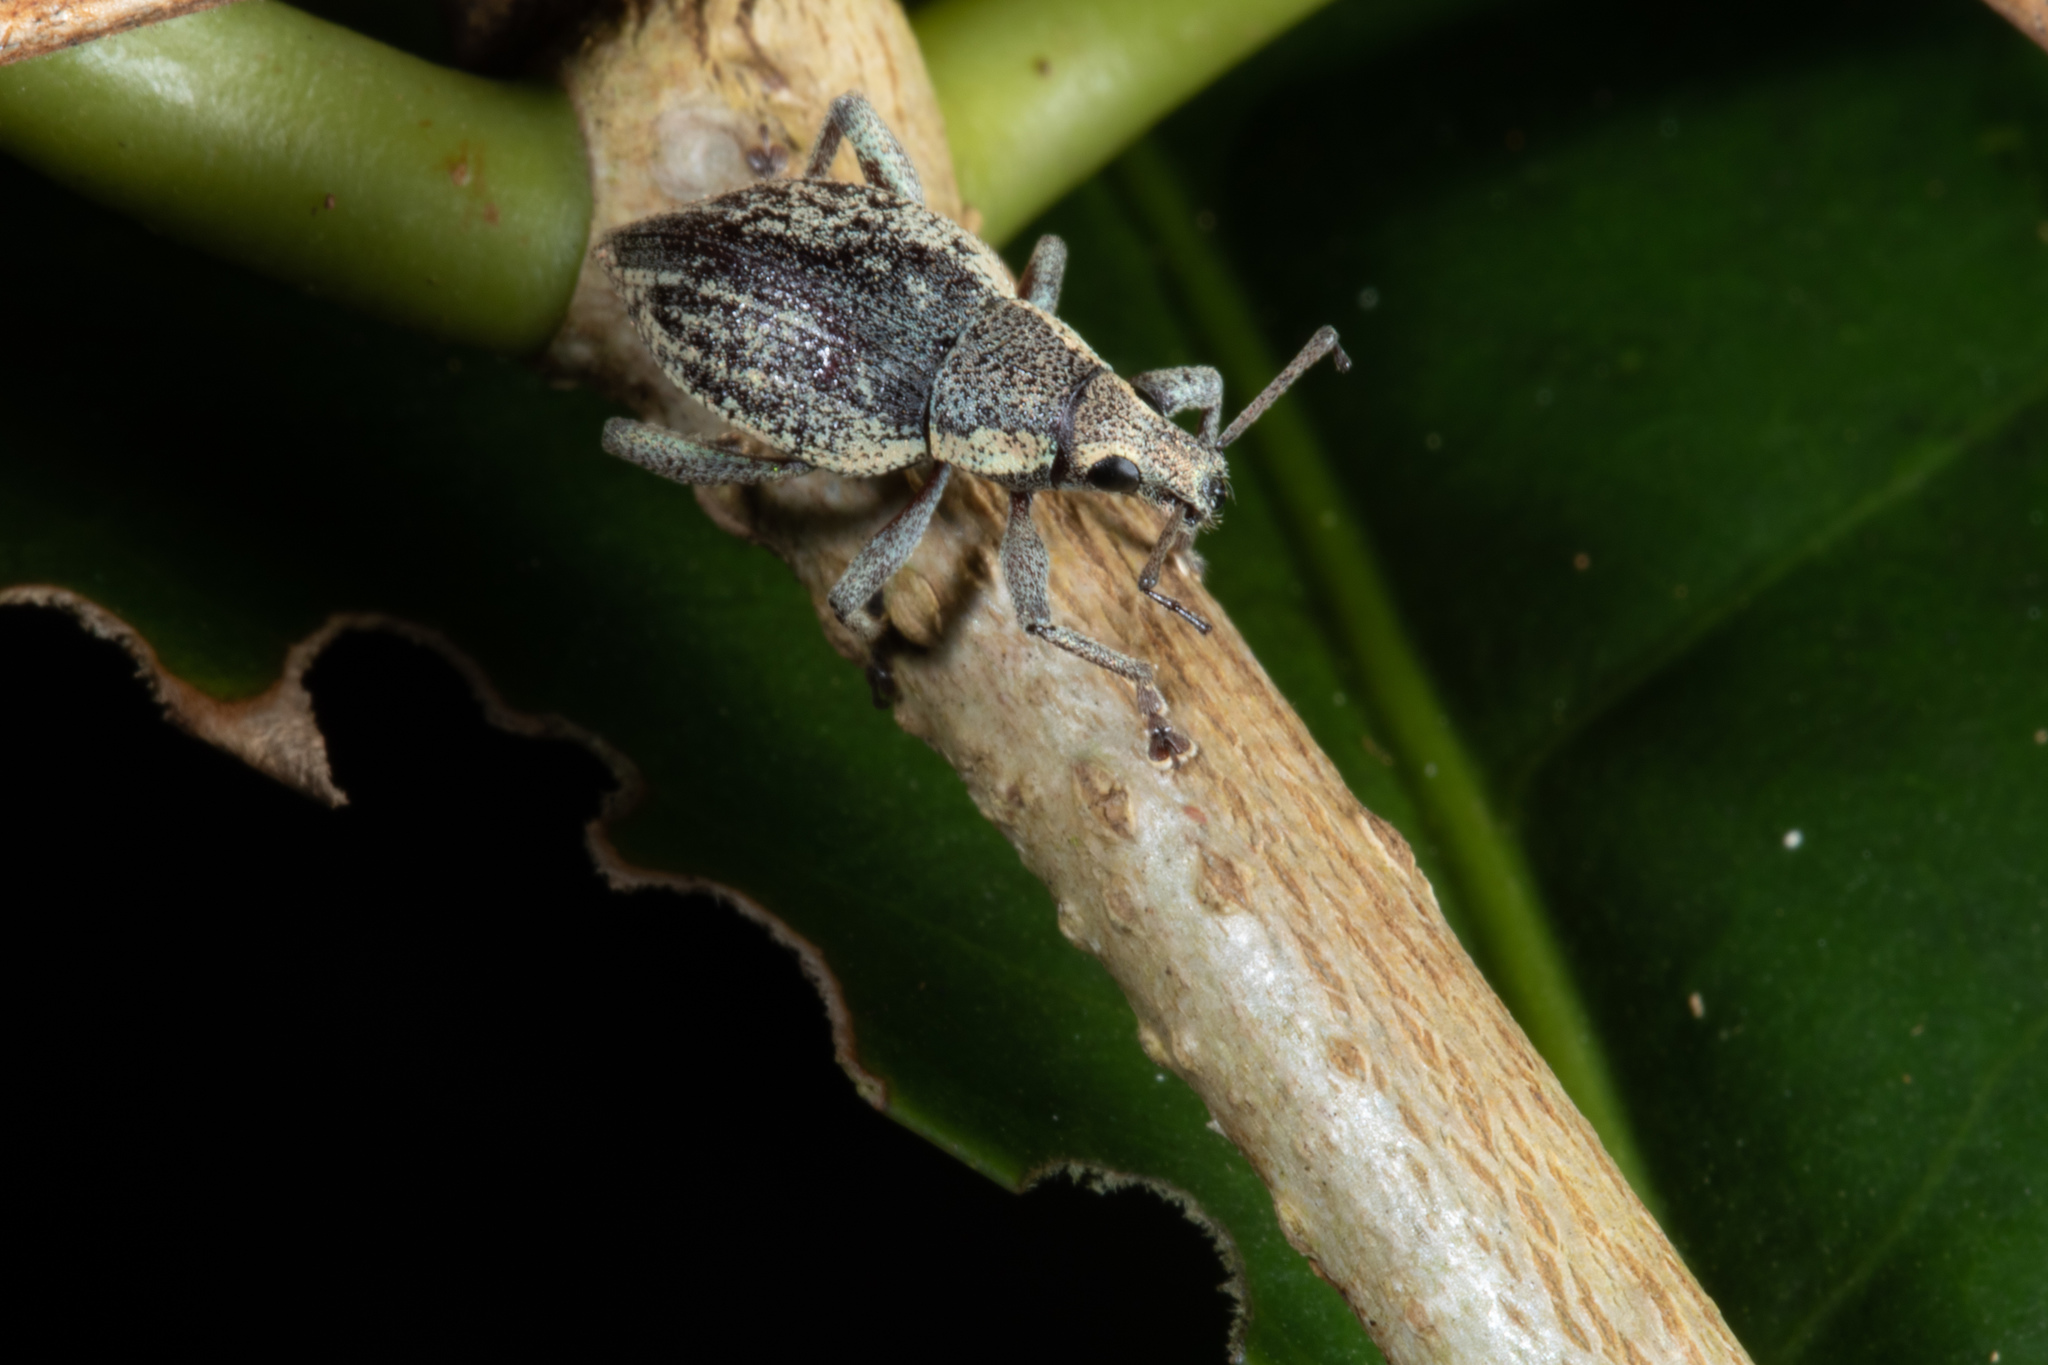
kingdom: Animalia
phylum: Arthropoda
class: Insecta
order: Coleoptera
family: Curculionidae
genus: Elytrurus
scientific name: Elytrurus niuei
